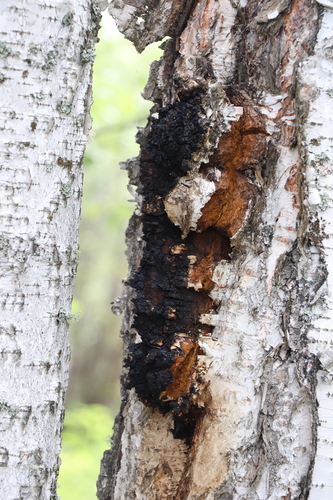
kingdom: Fungi
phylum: Basidiomycota
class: Agaricomycetes
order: Hymenochaetales
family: Hymenochaetaceae
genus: Inonotus
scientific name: Inonotus obliquus
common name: Chaga
